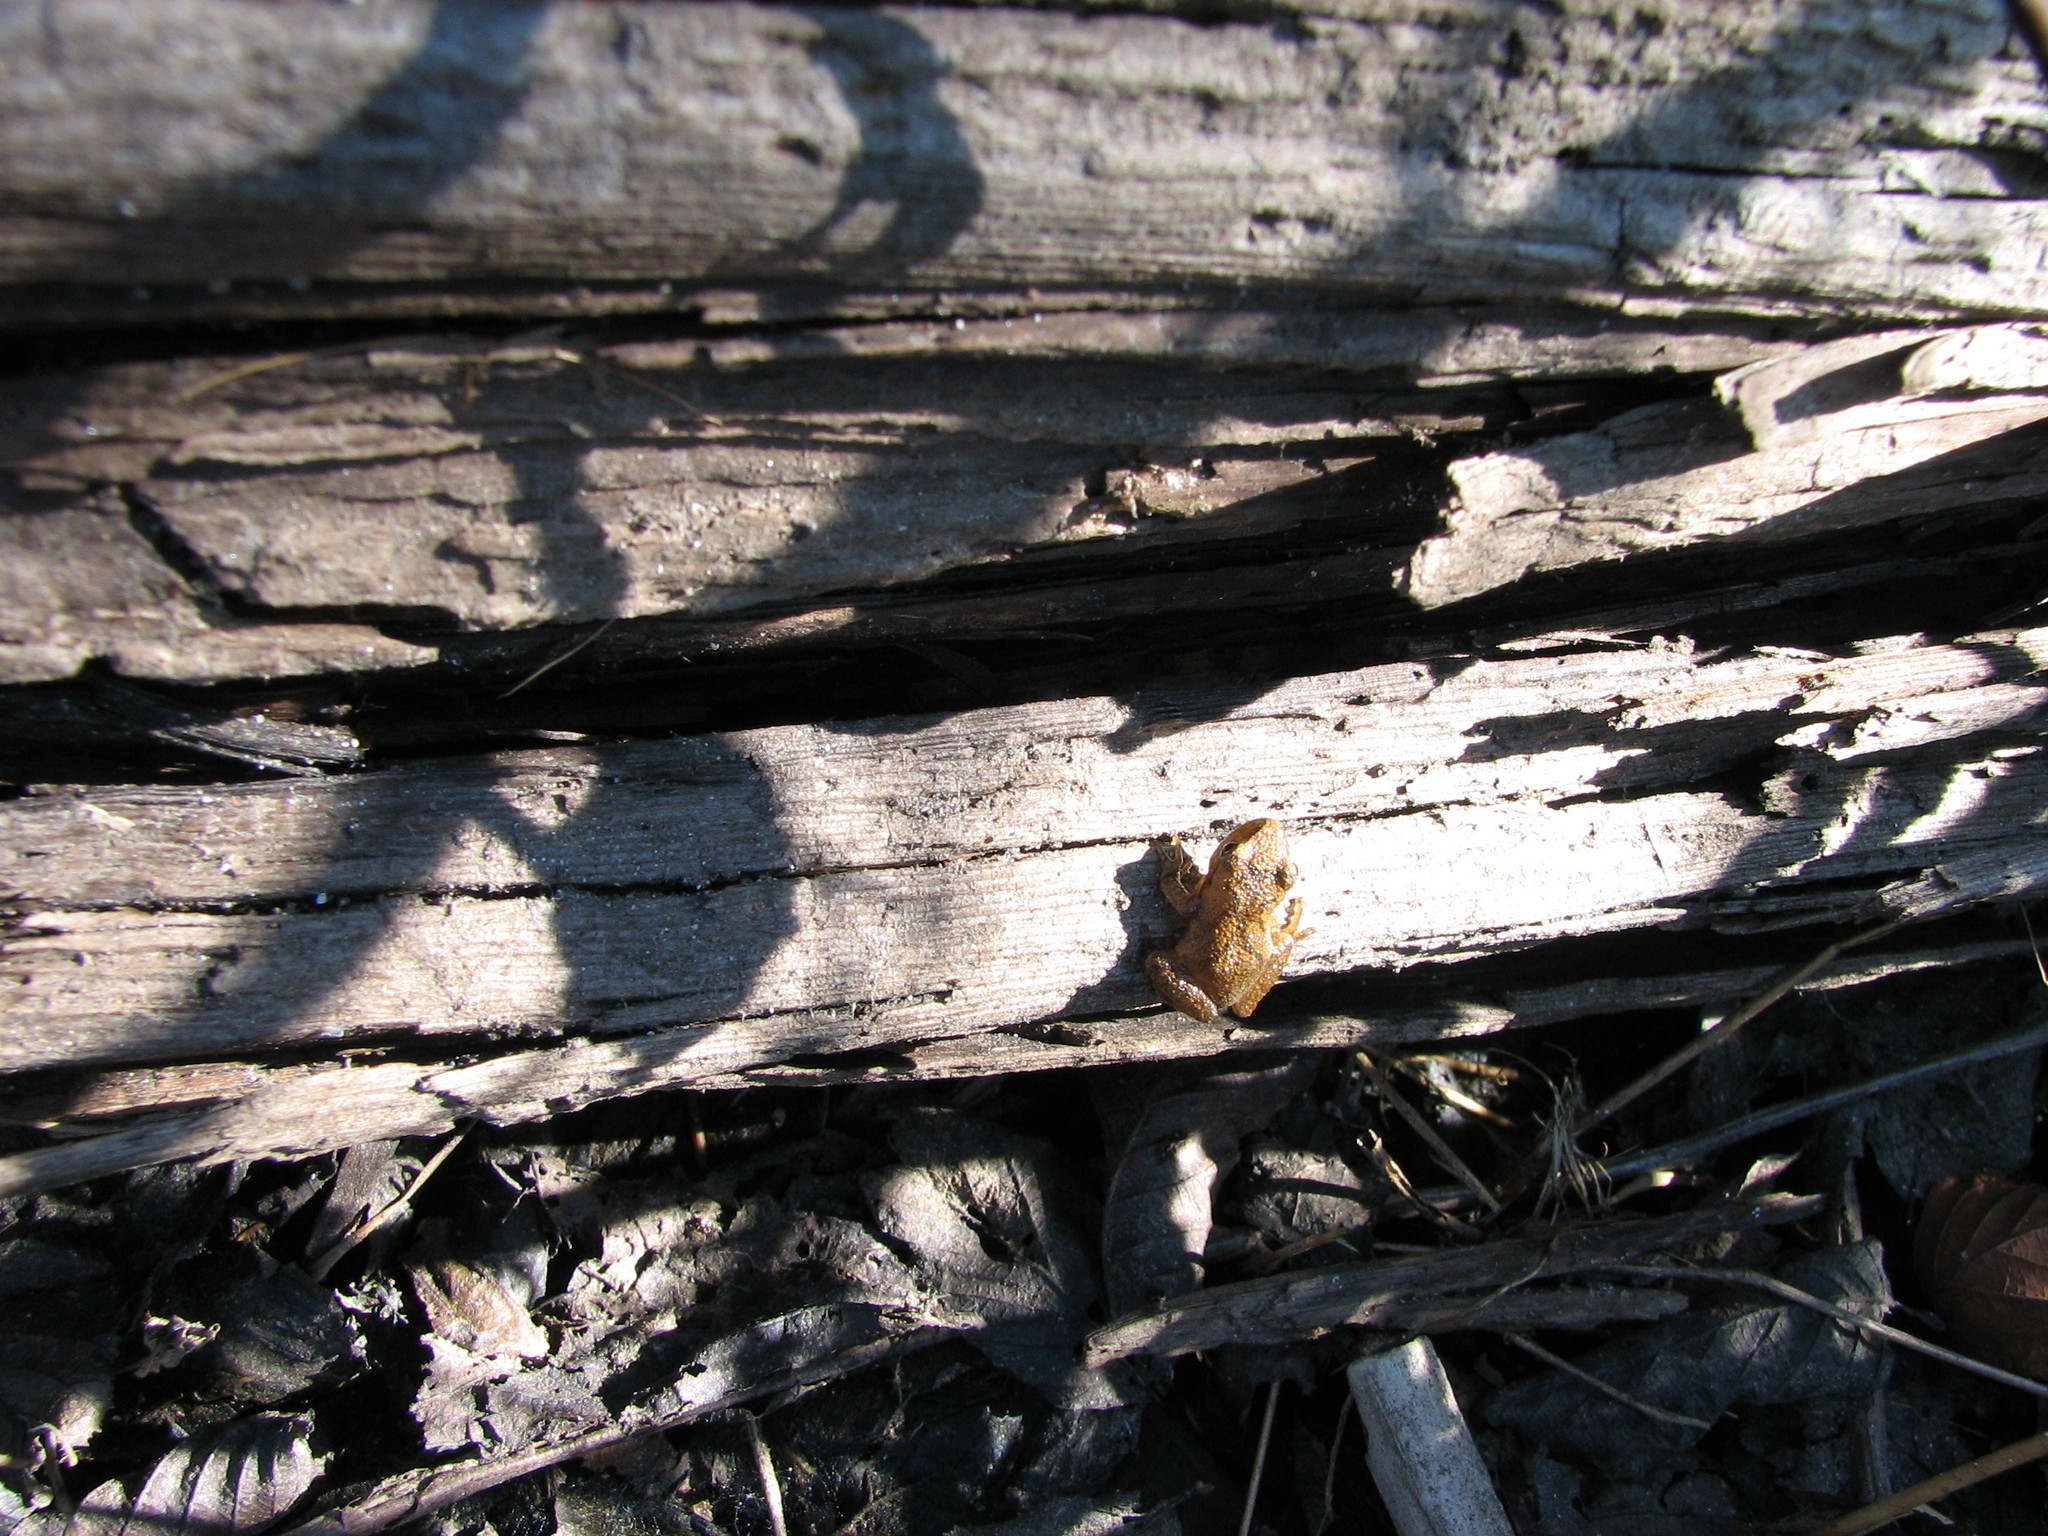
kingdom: Animalia
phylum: Chordata
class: Amphibia
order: Anura
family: Hylidae
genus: Pseudacris
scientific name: Pseudacris crucifer
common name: Spring peeper
